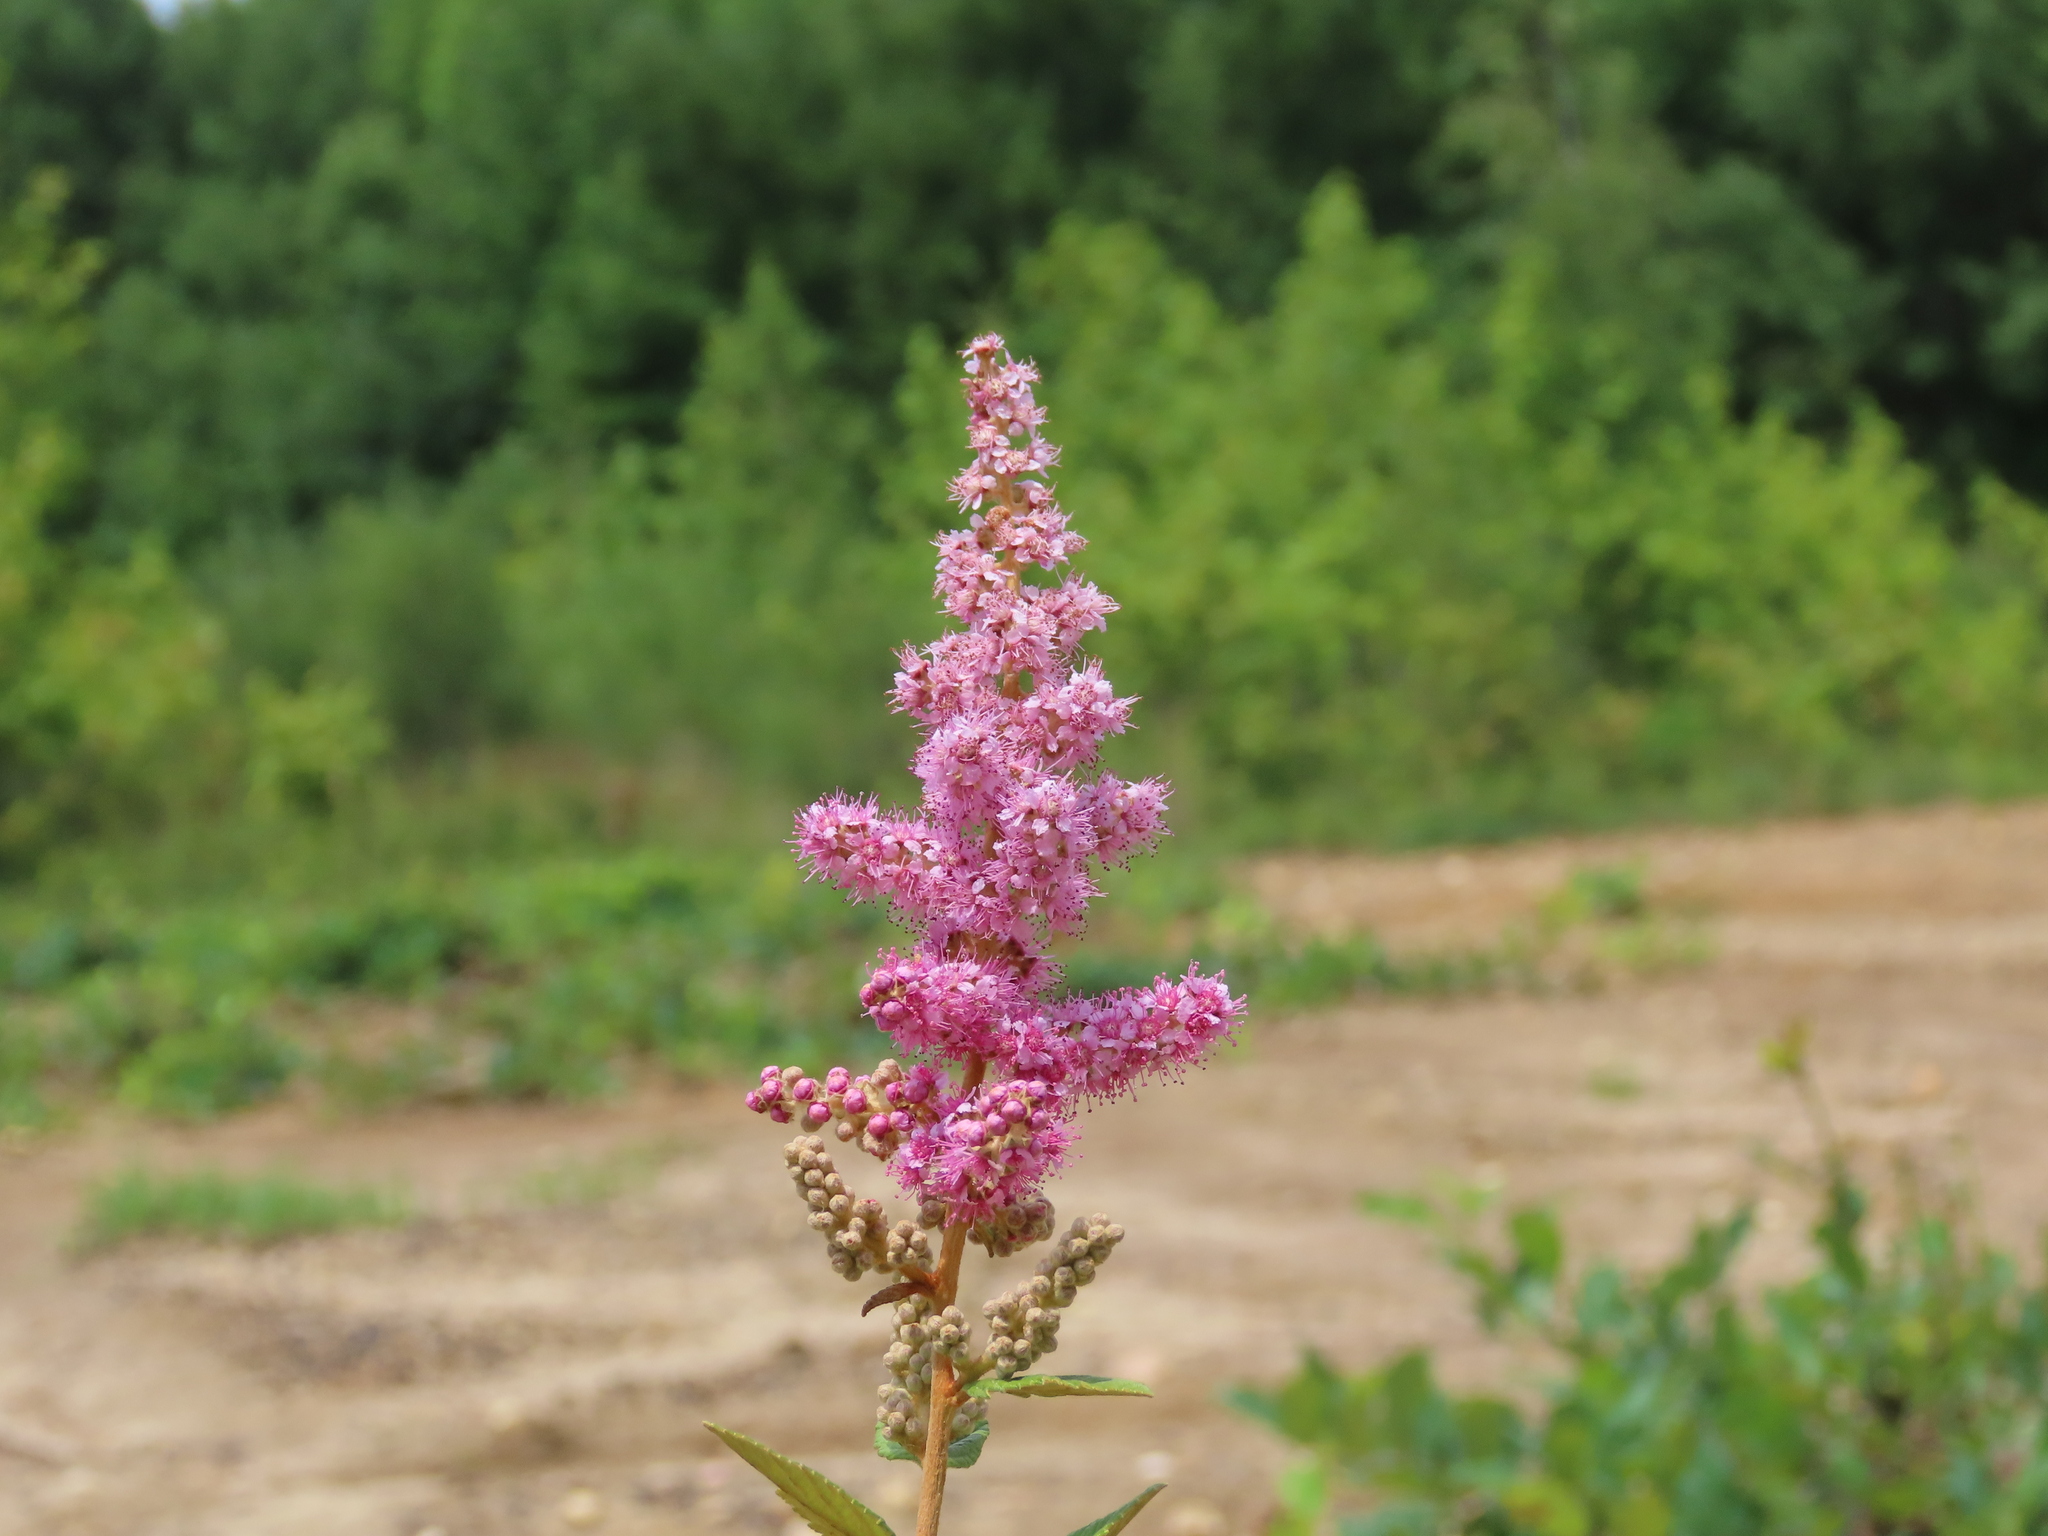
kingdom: Plantae
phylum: Tracheophyta
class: Magnoliopsida
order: Rosales
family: Rosaceae
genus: Spiraea
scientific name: Spiraea tomentosa
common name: Hardhack
